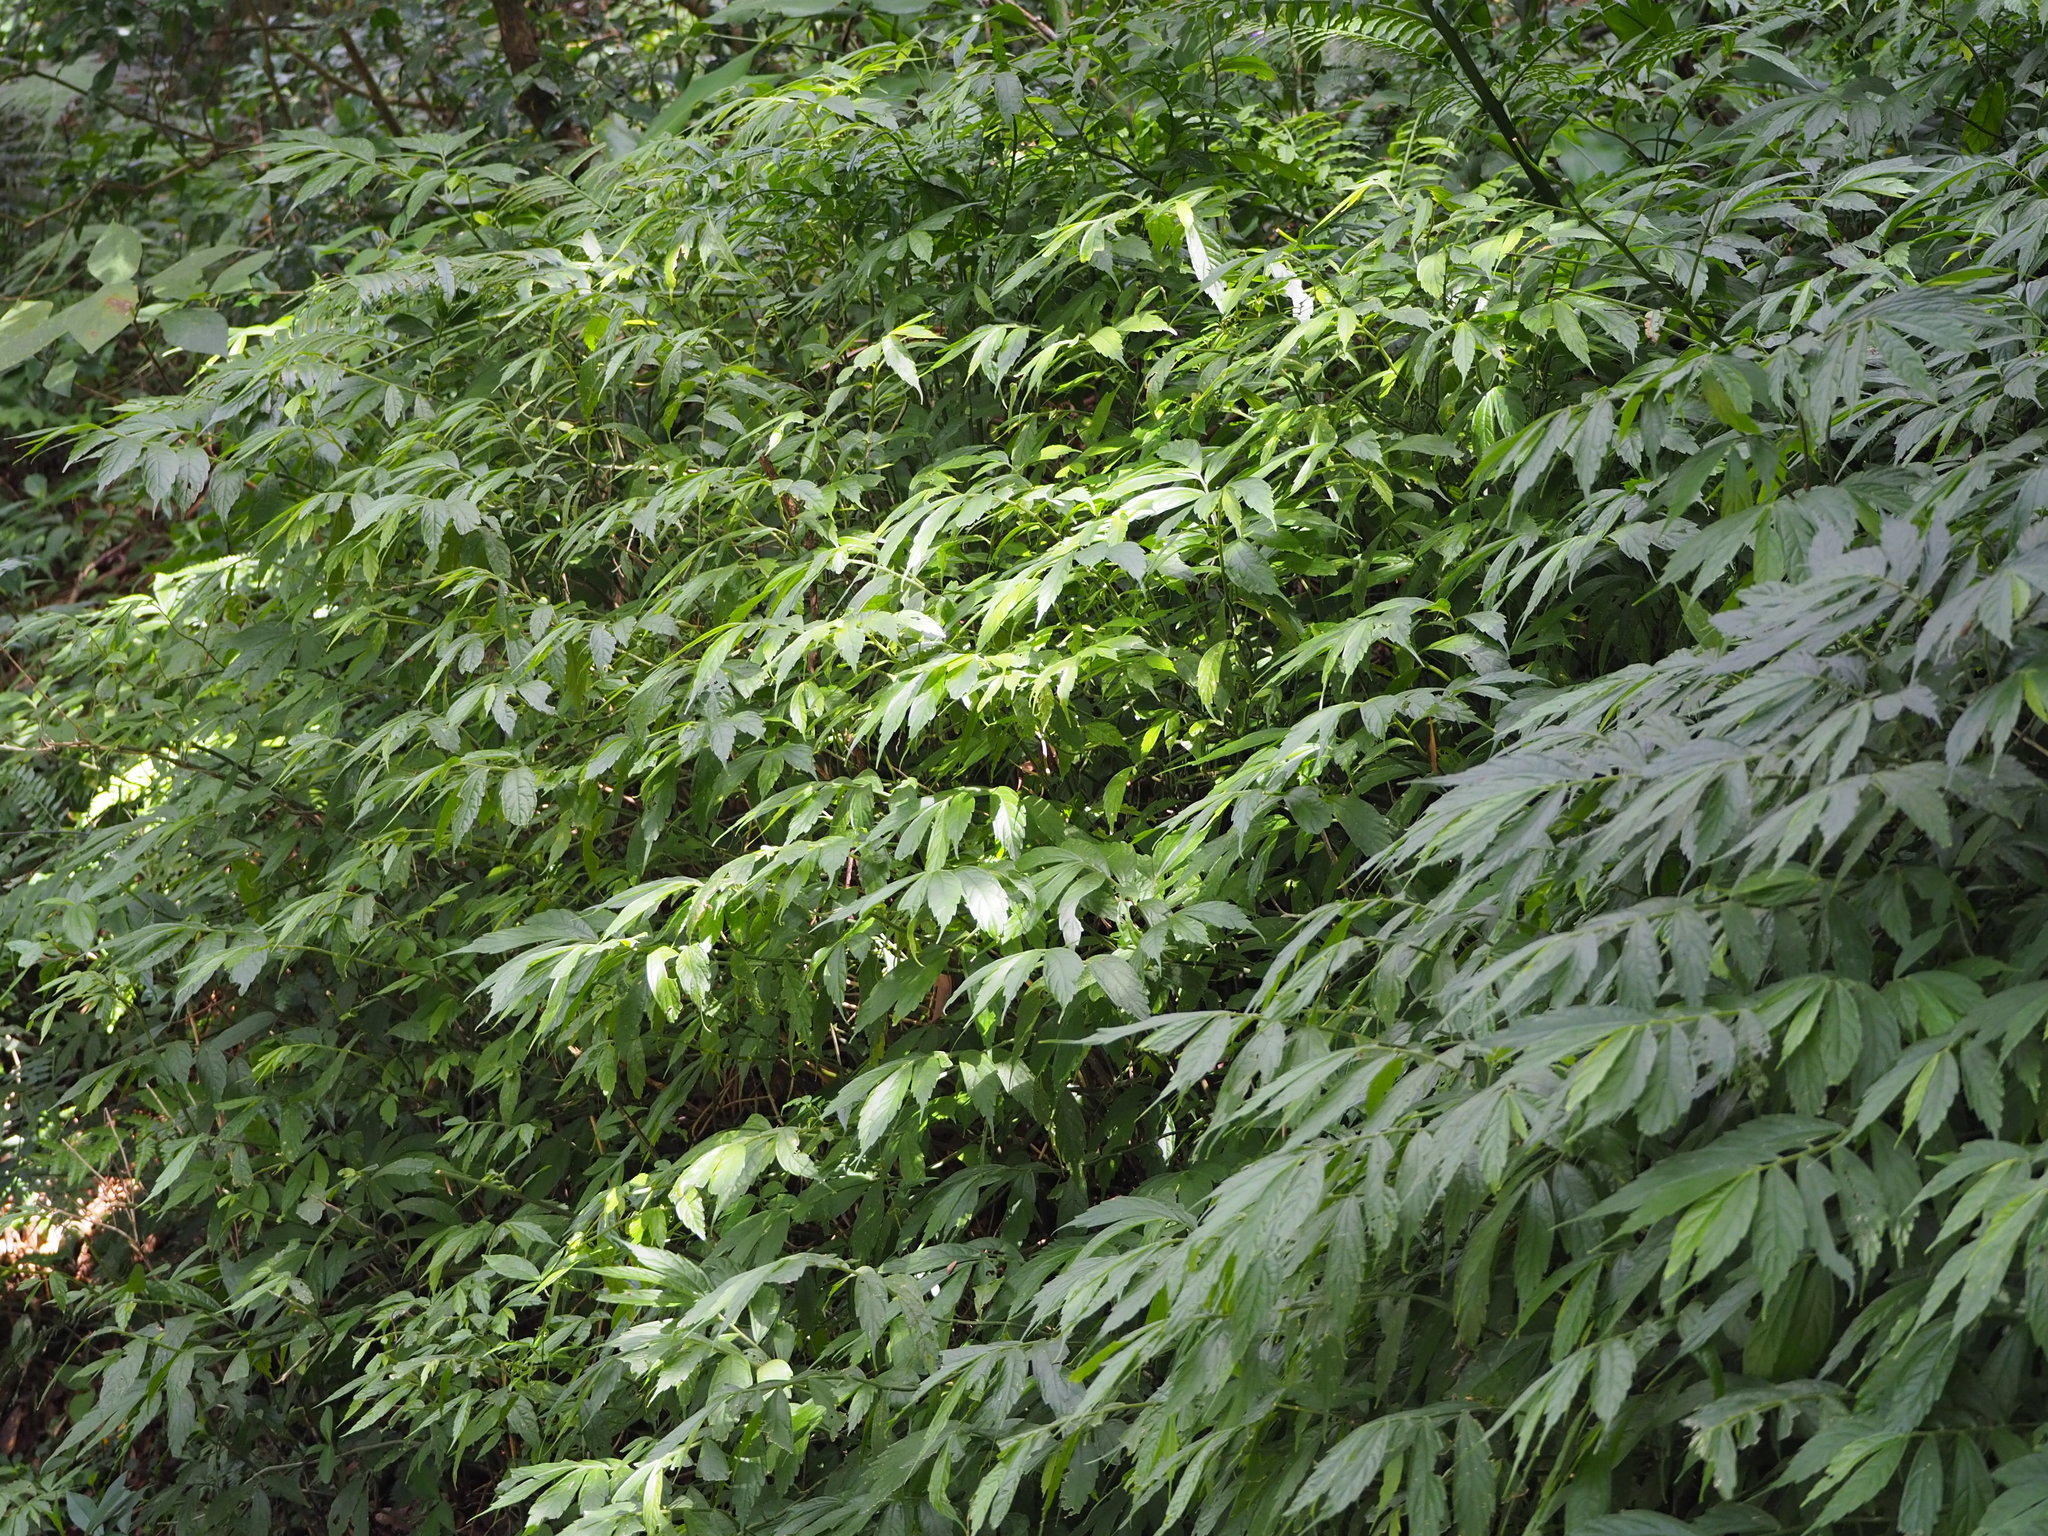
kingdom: Plantae
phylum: Tracheophyta
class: Magnoliopsida
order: Rosales
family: Urticaceae
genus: Elatostema
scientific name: Elatostema lineolatum
